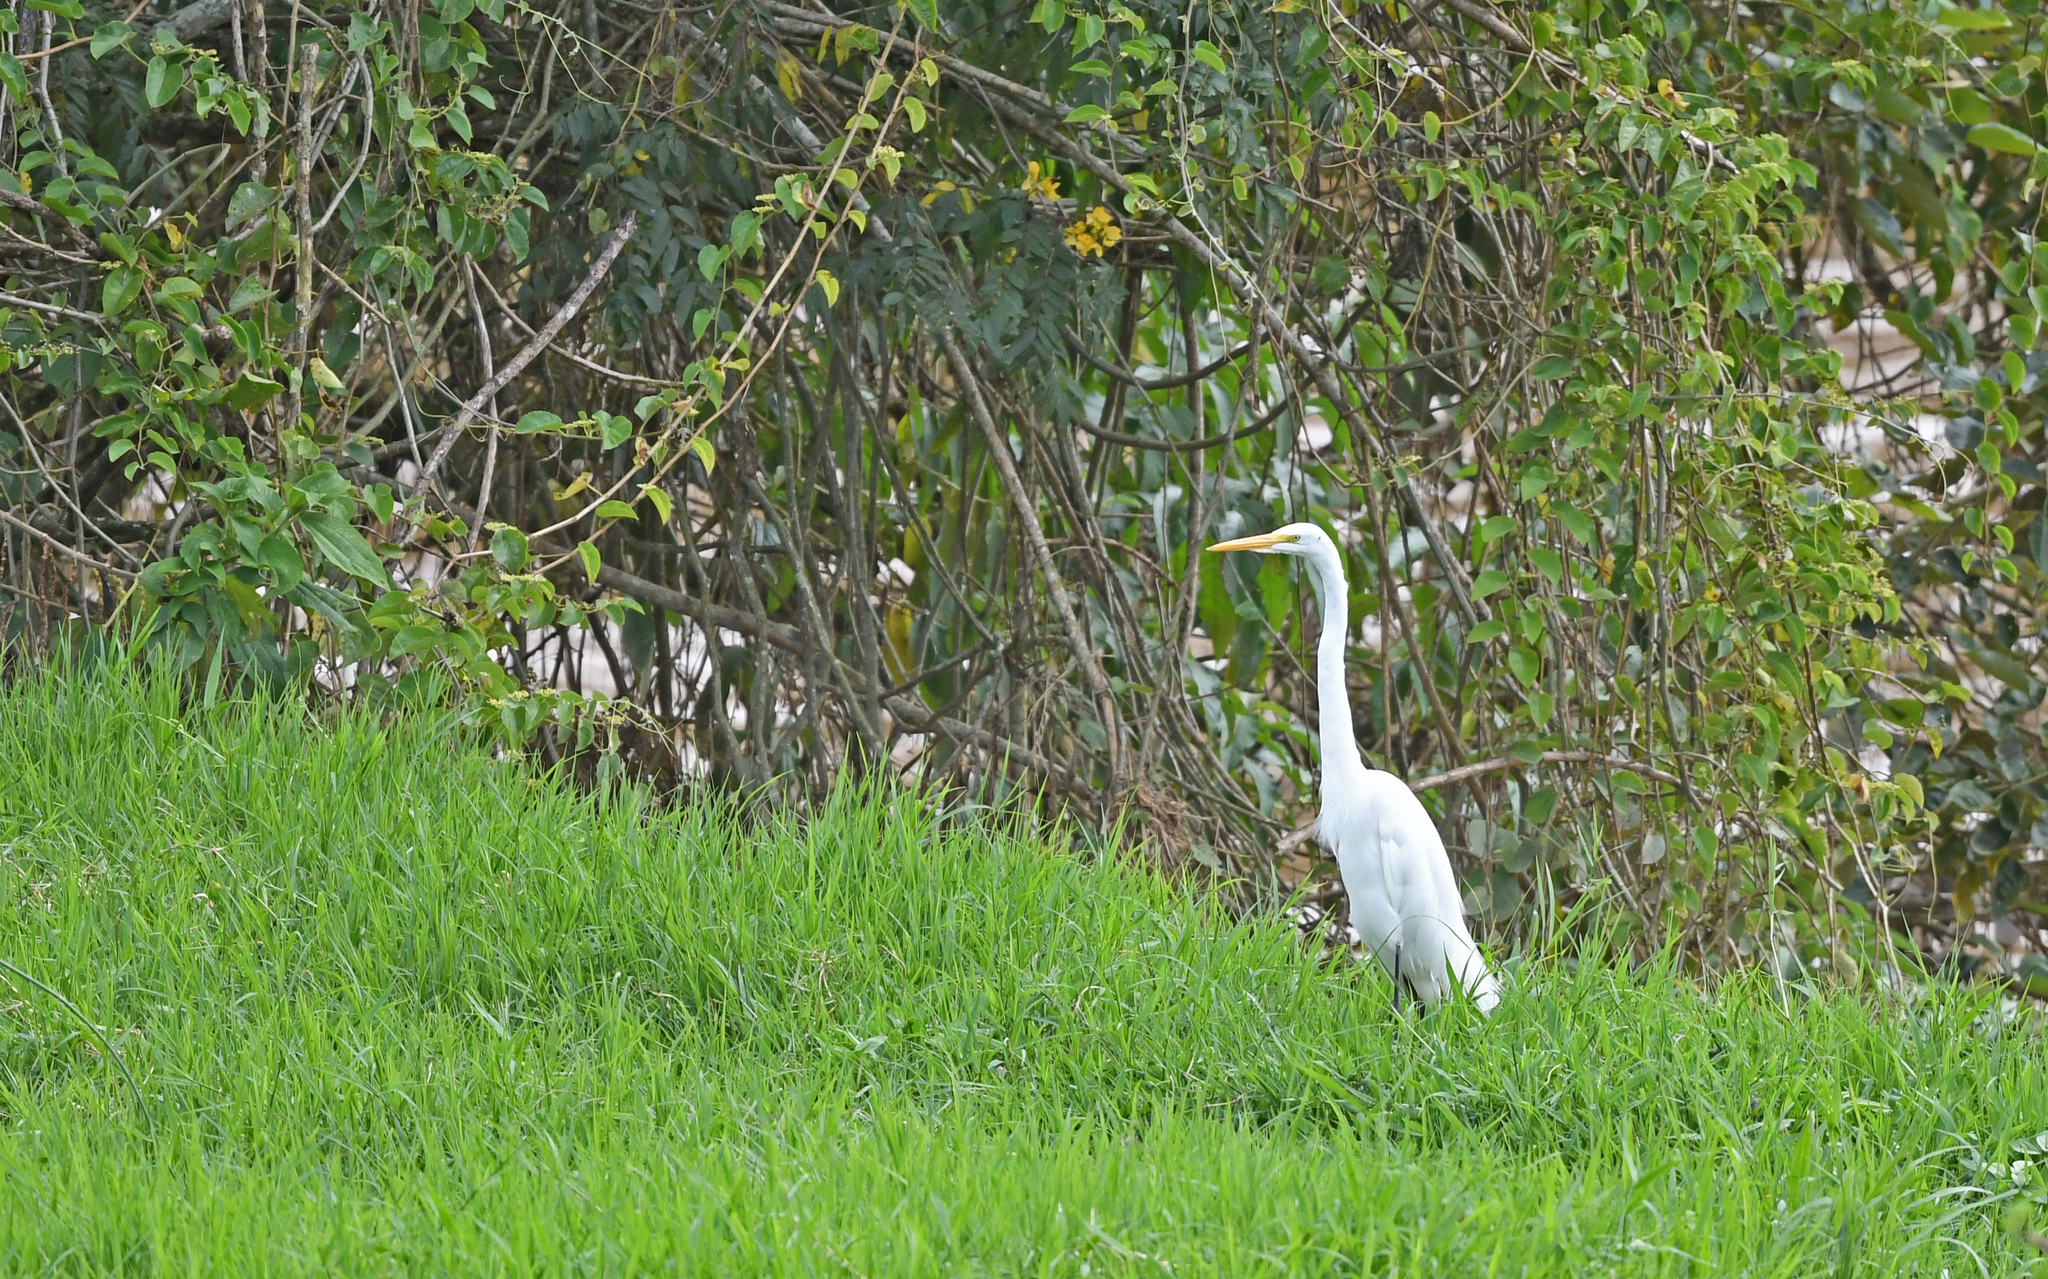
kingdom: Animalia
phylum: Chordata
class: Aves
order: Pelecaniformes
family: Ardeidae
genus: Ardea
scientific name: Ardea alba
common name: Great egret
